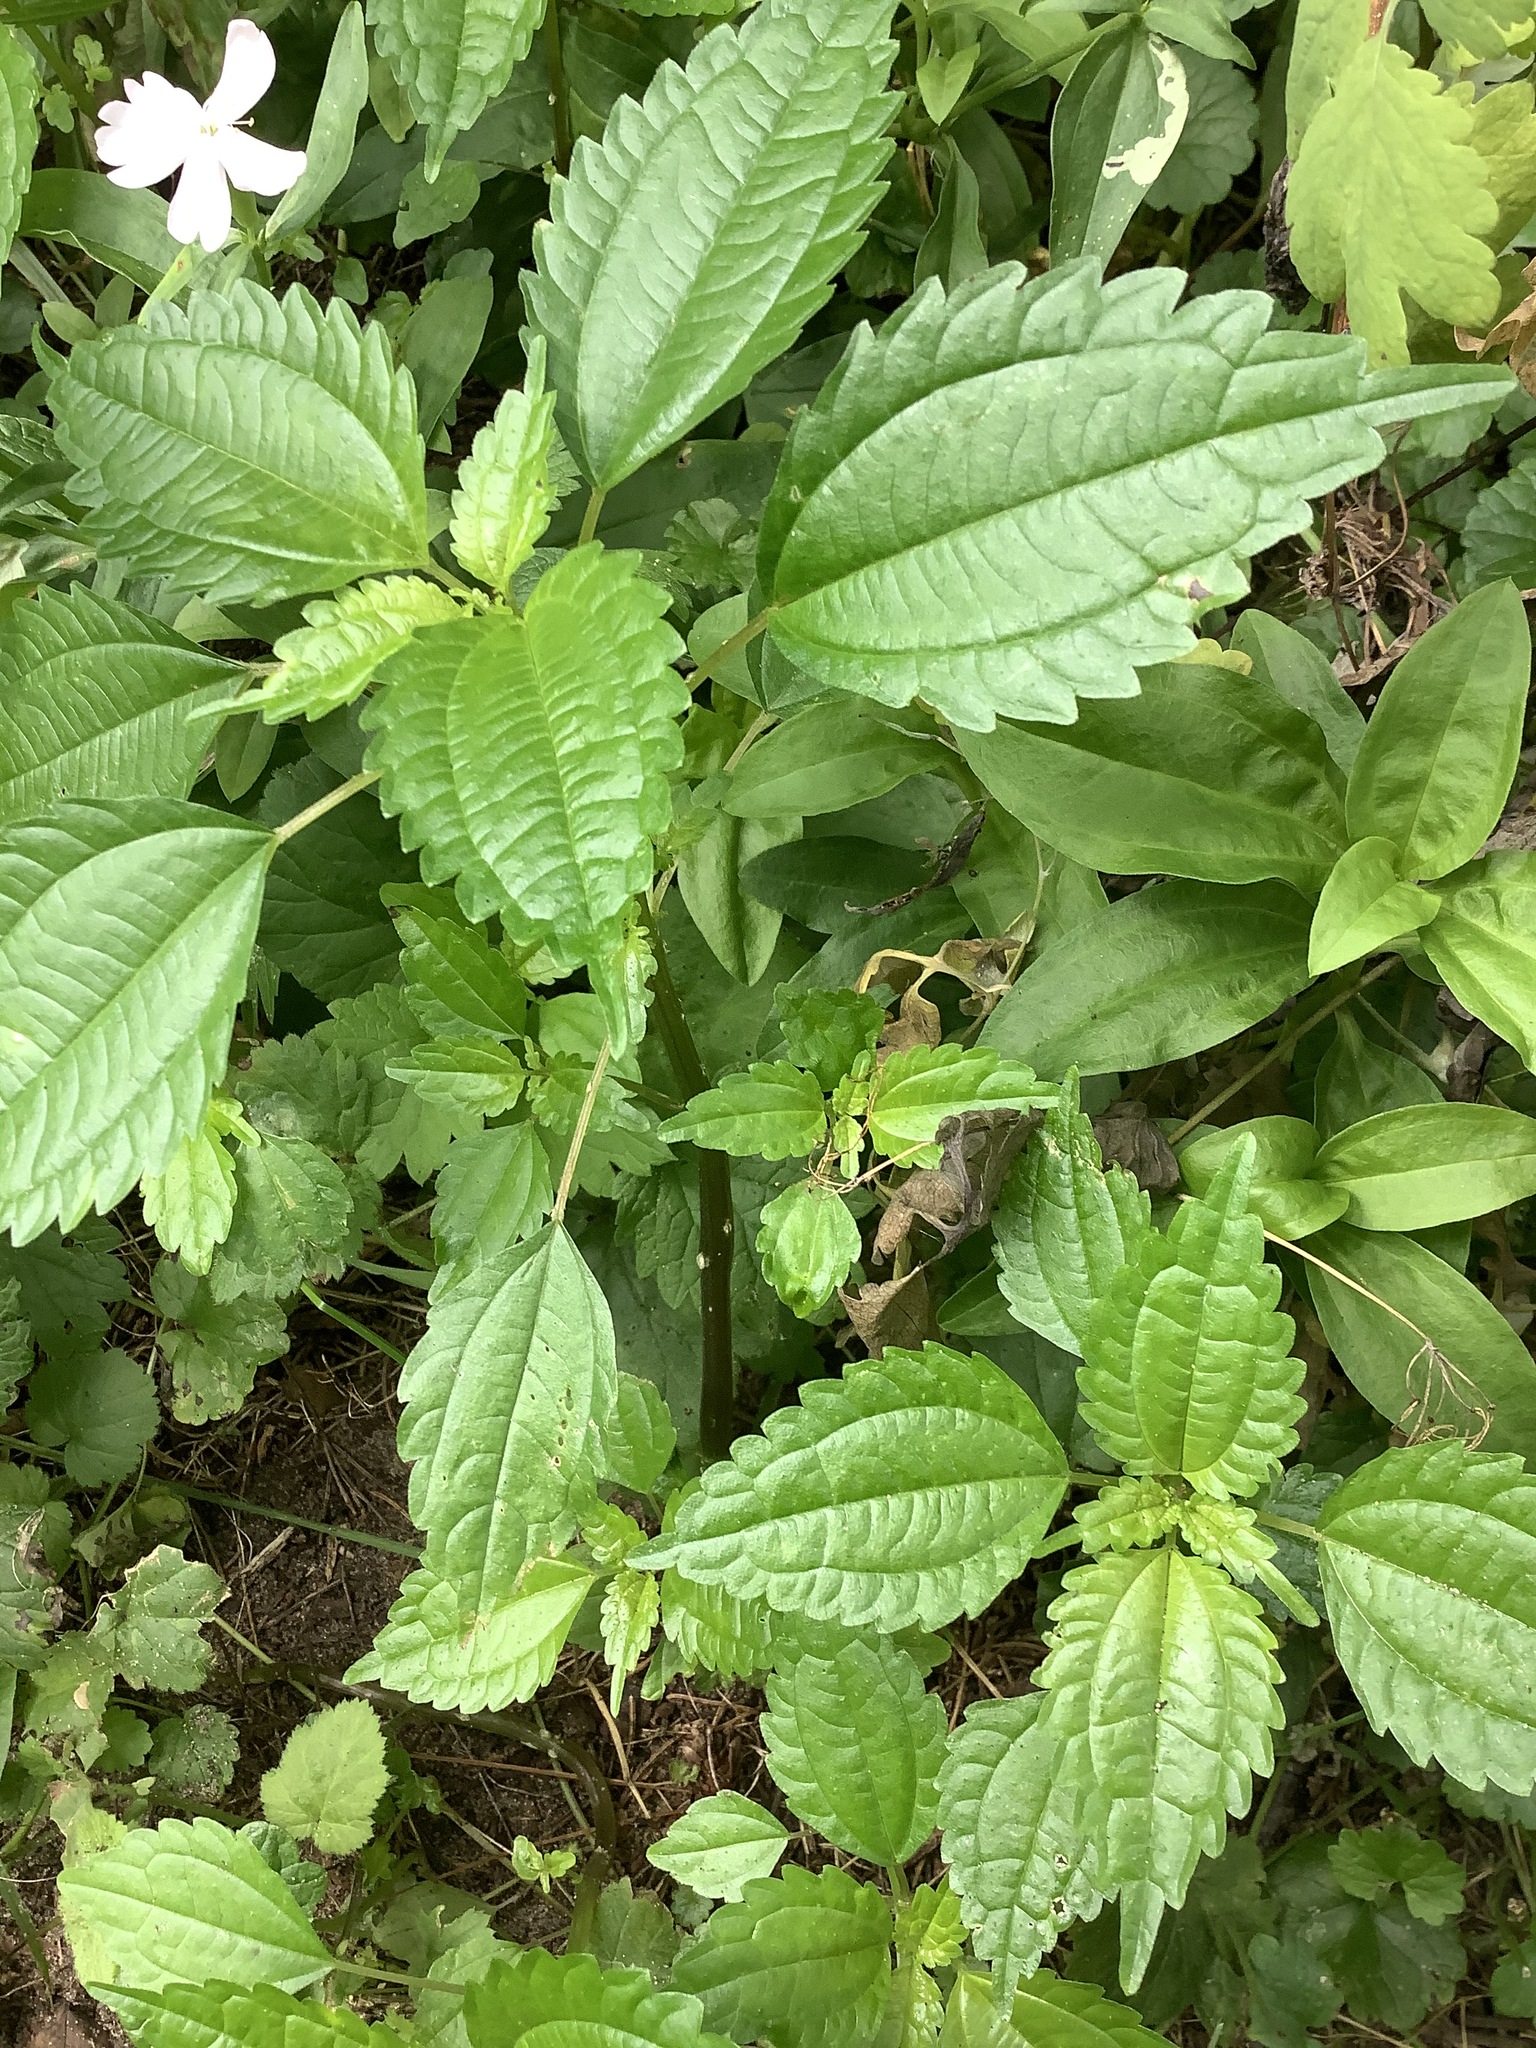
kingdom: Plantae
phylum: Tracheophyta
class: Magnoliopsida
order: Rosales
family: Urticaceae
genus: Pilea
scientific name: Pilea pumila
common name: Clearweed
